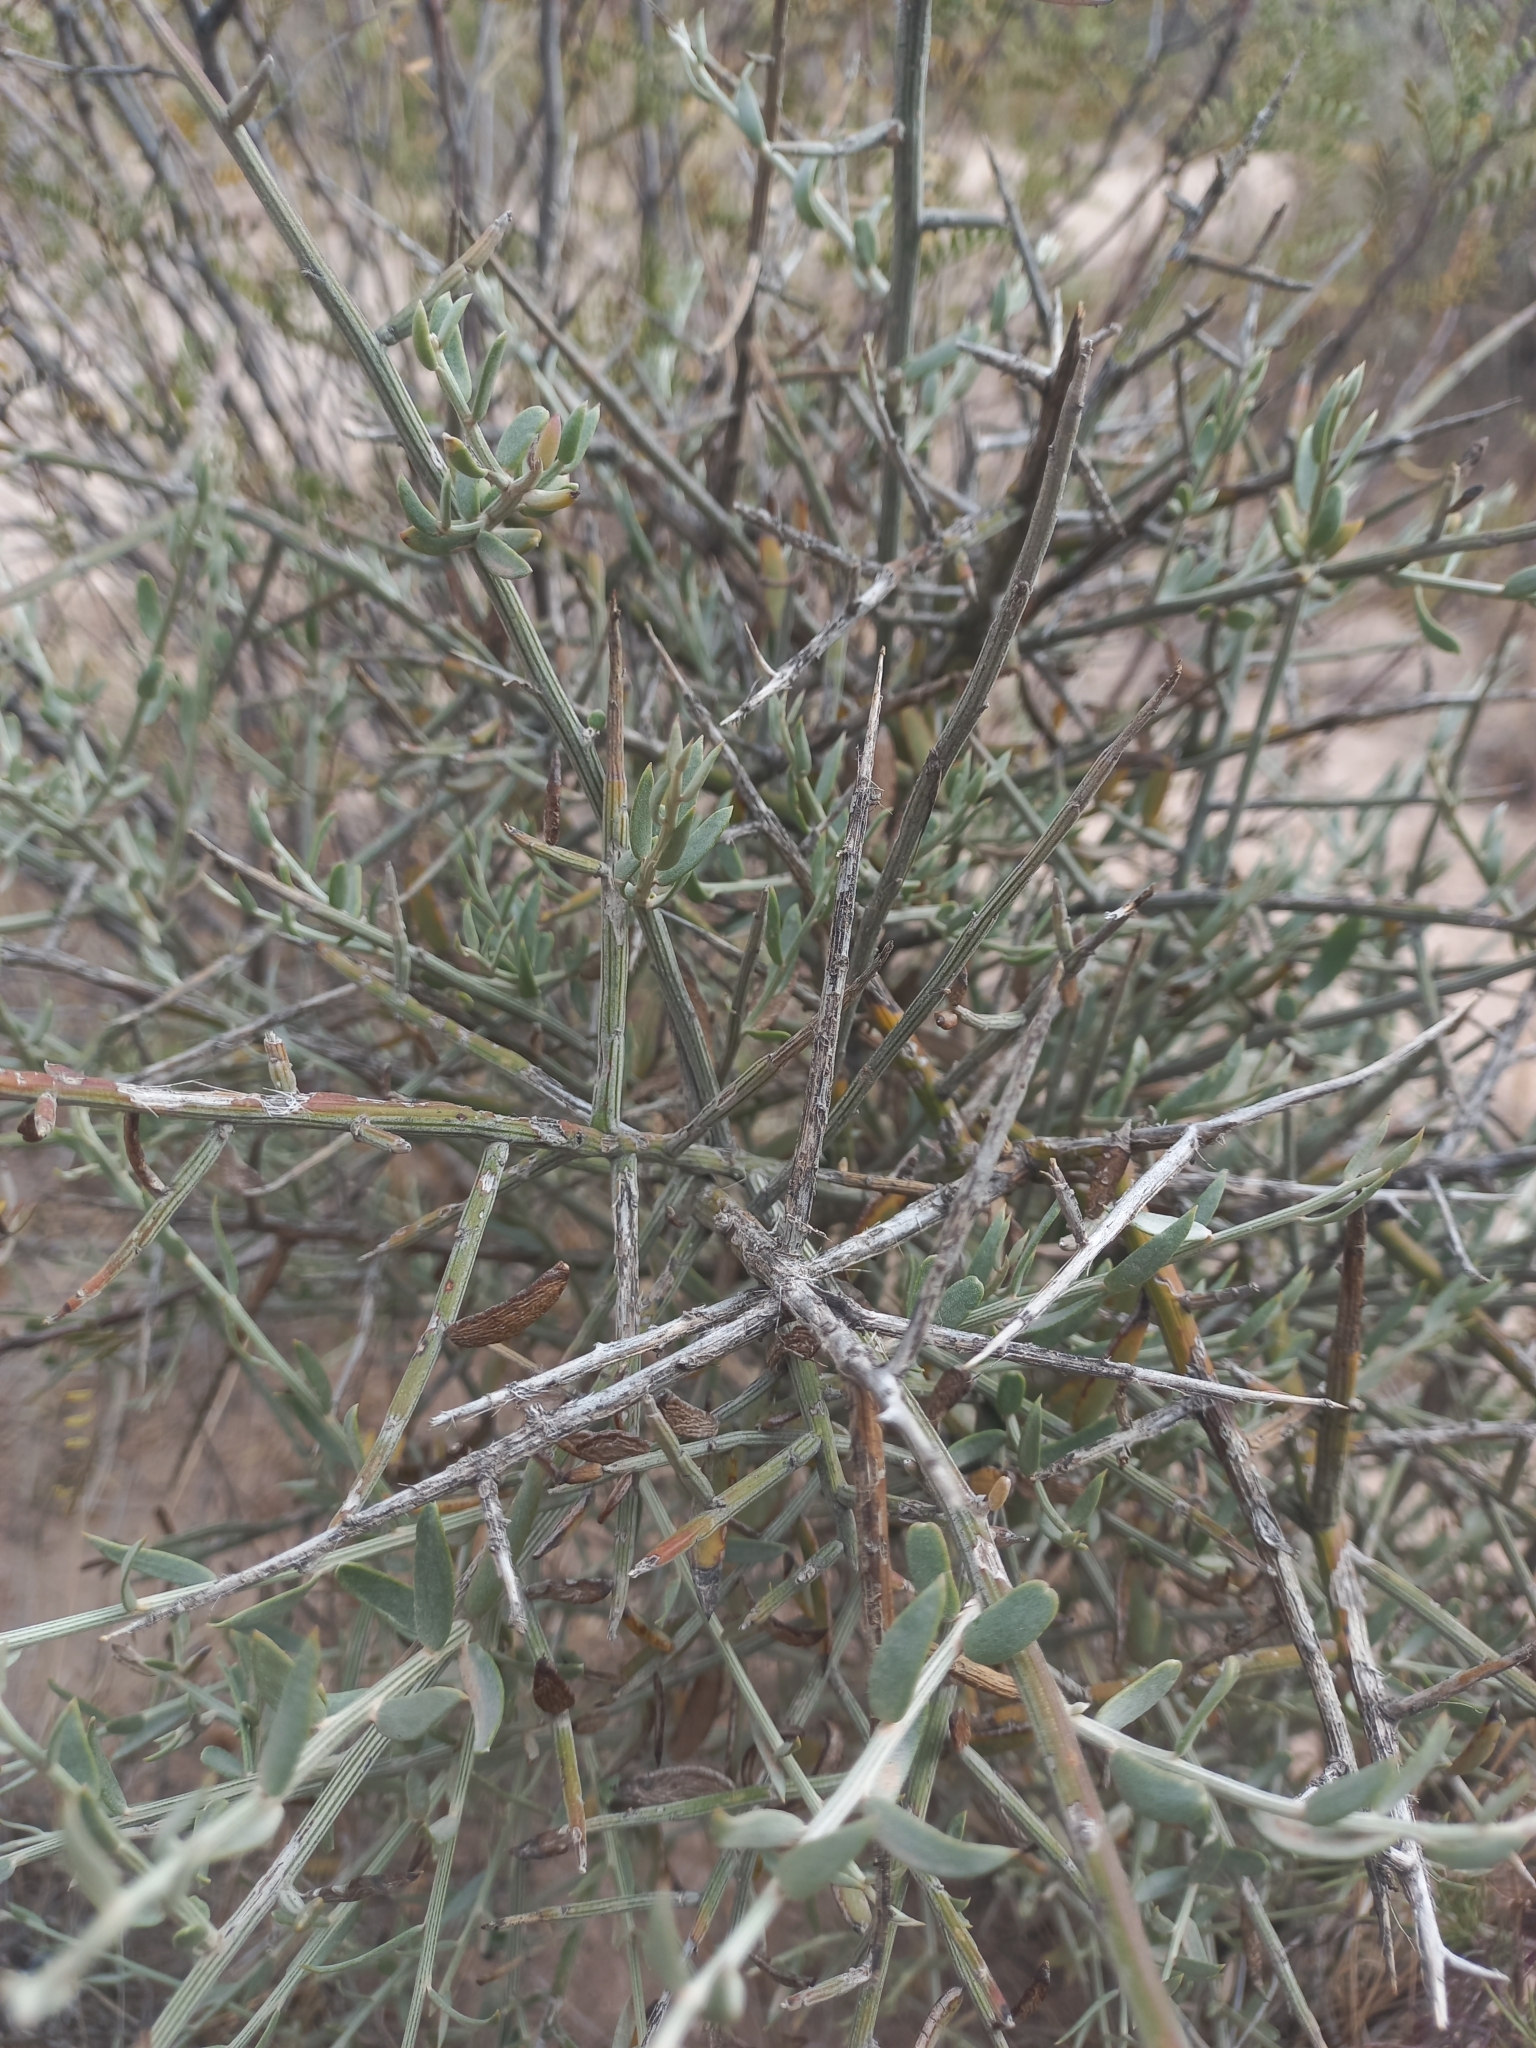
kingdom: Plantae
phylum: Tracheophyta
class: Magnoliopsida
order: Asterales
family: Asteraceae
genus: Cyclolepis
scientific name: Cyclolepis genistoides
